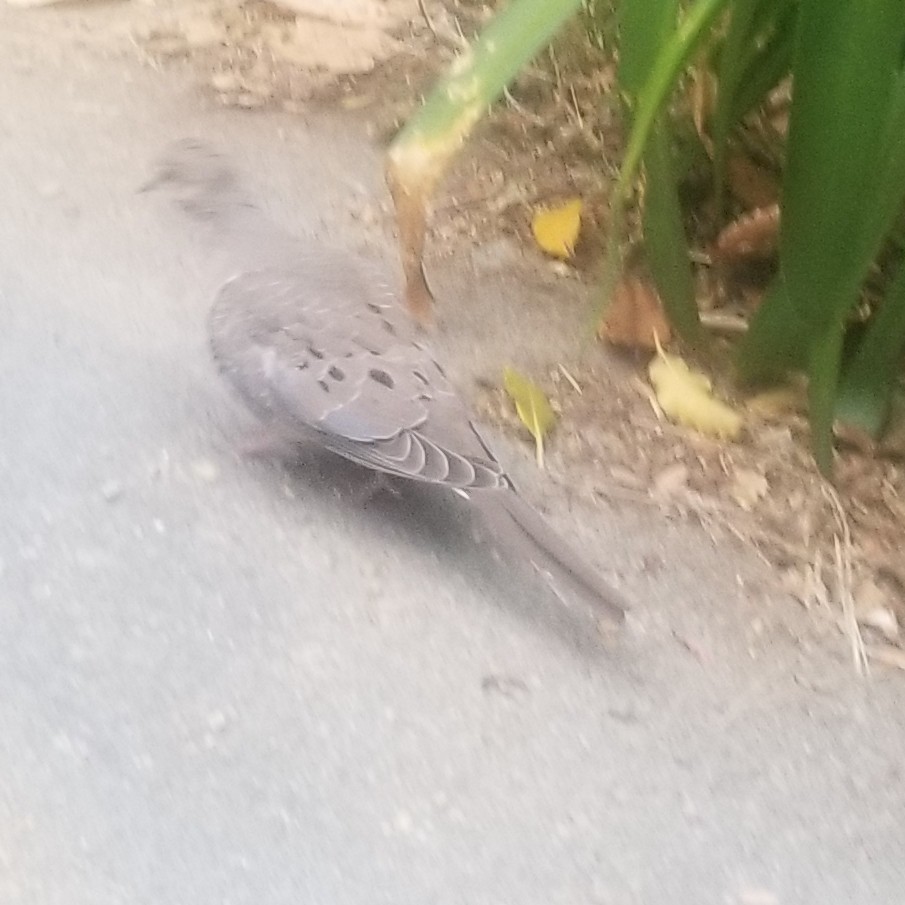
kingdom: Animalia
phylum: Chordata
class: Aves
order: Columbiformes
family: Columbidae
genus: Zenaida
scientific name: Zenaida macroura
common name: Mourning dove
